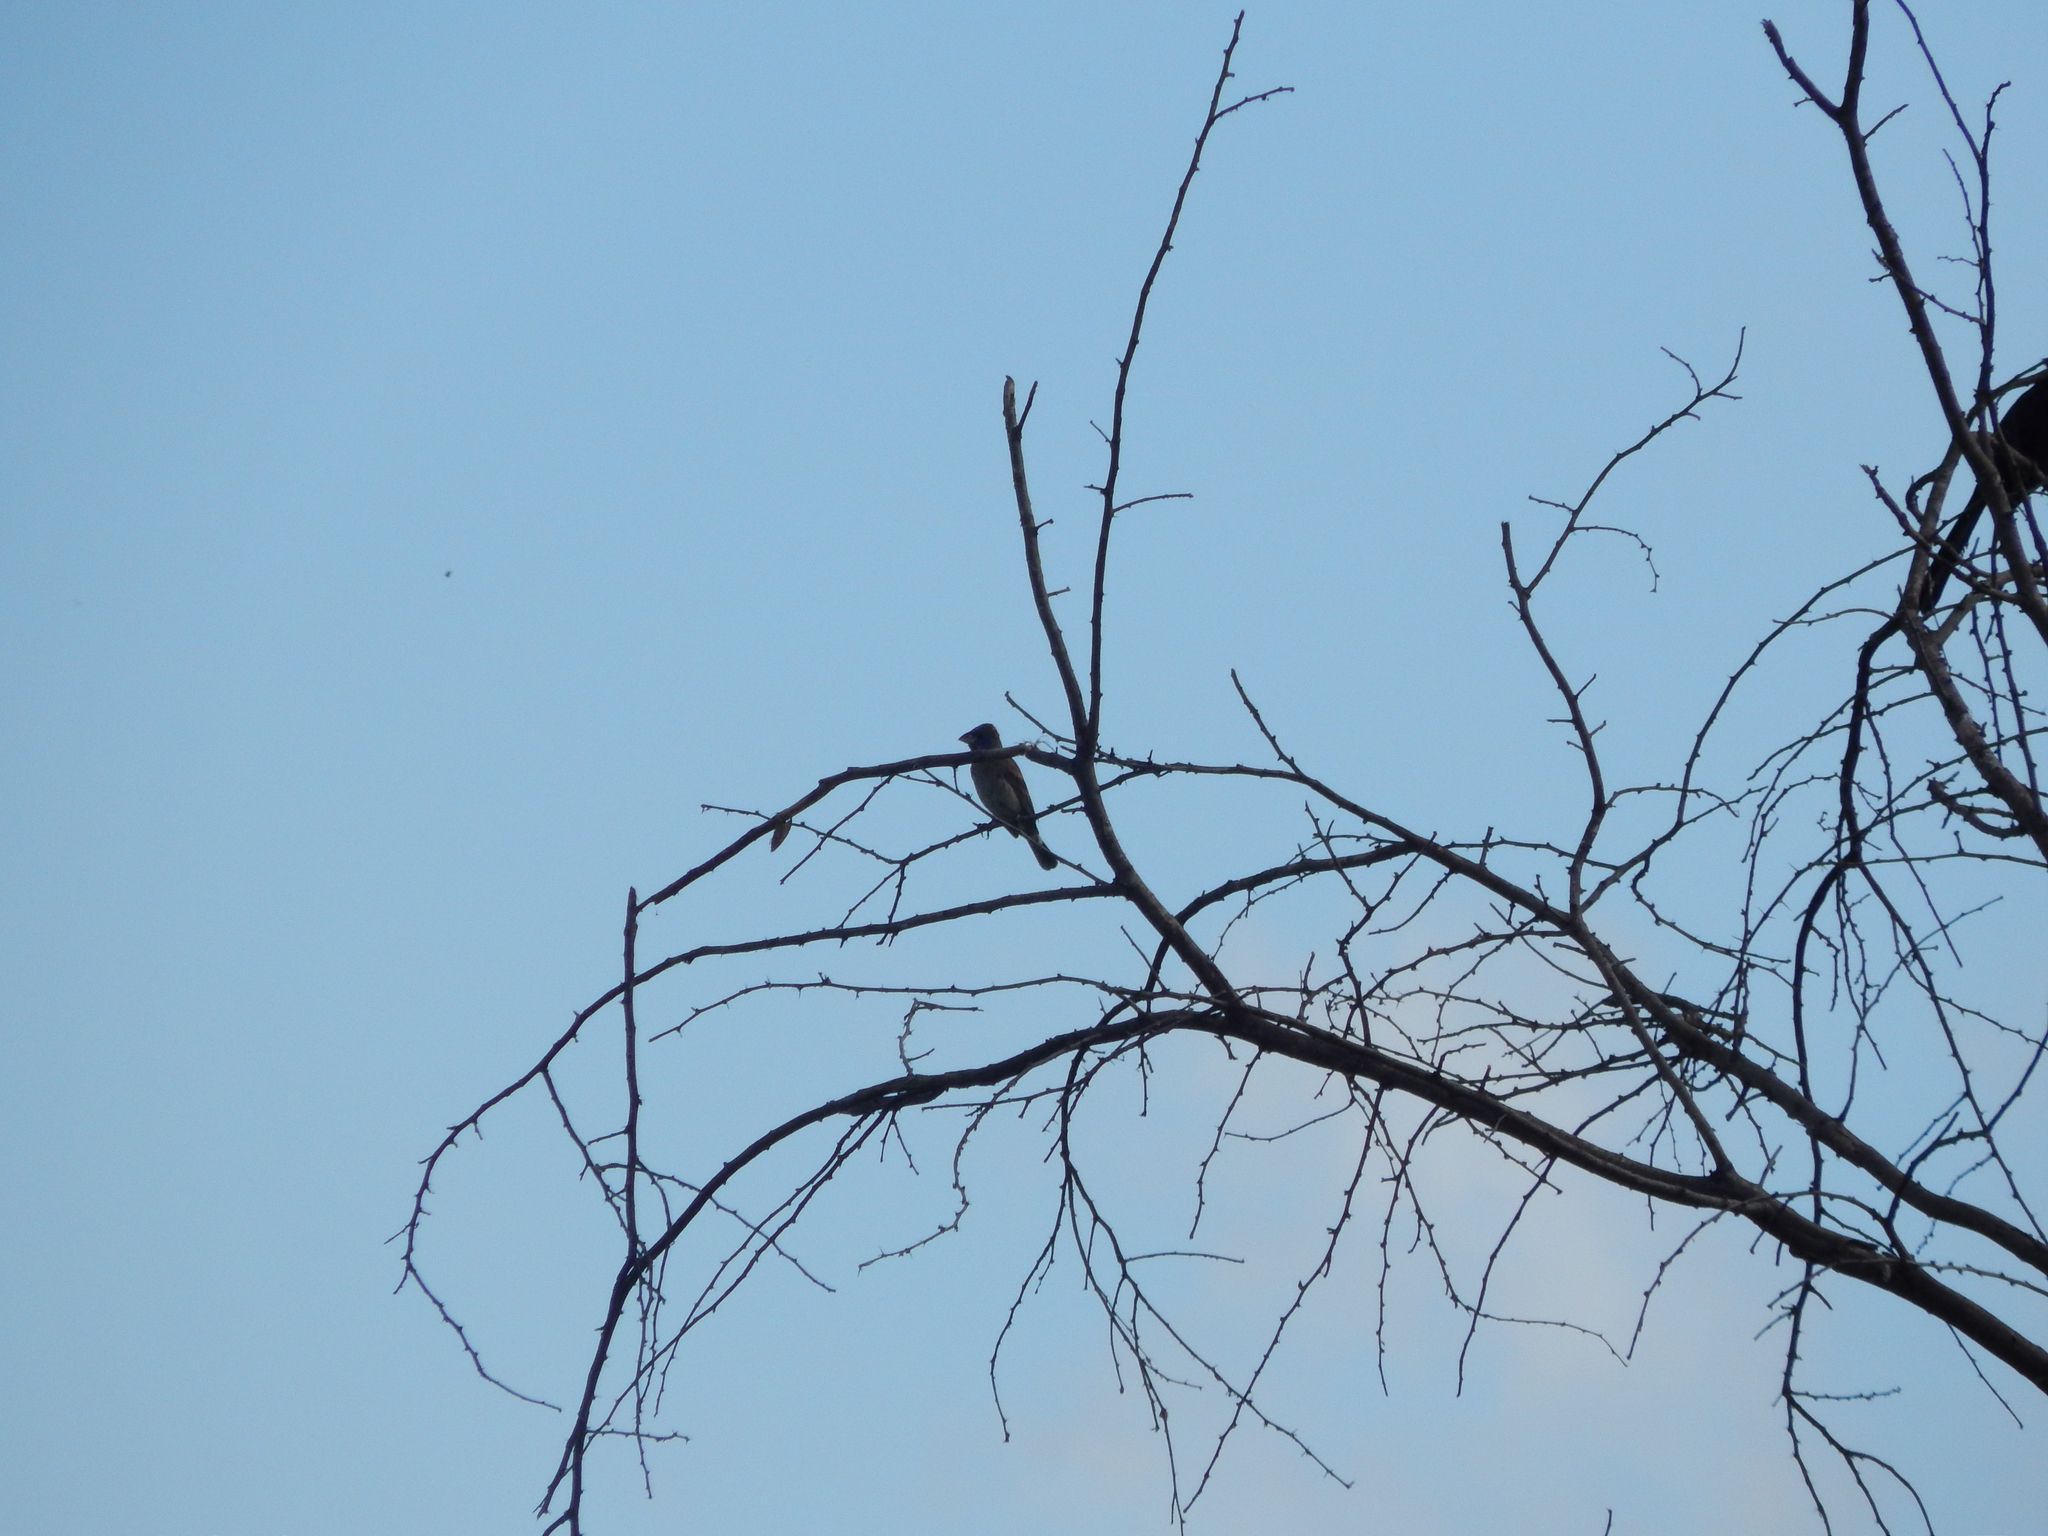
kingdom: Animalia
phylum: Chordata
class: Aves
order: Passeriformes
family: Cardinalidae
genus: Passerina
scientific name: Passerina caerulea
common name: Blue grosbeak
